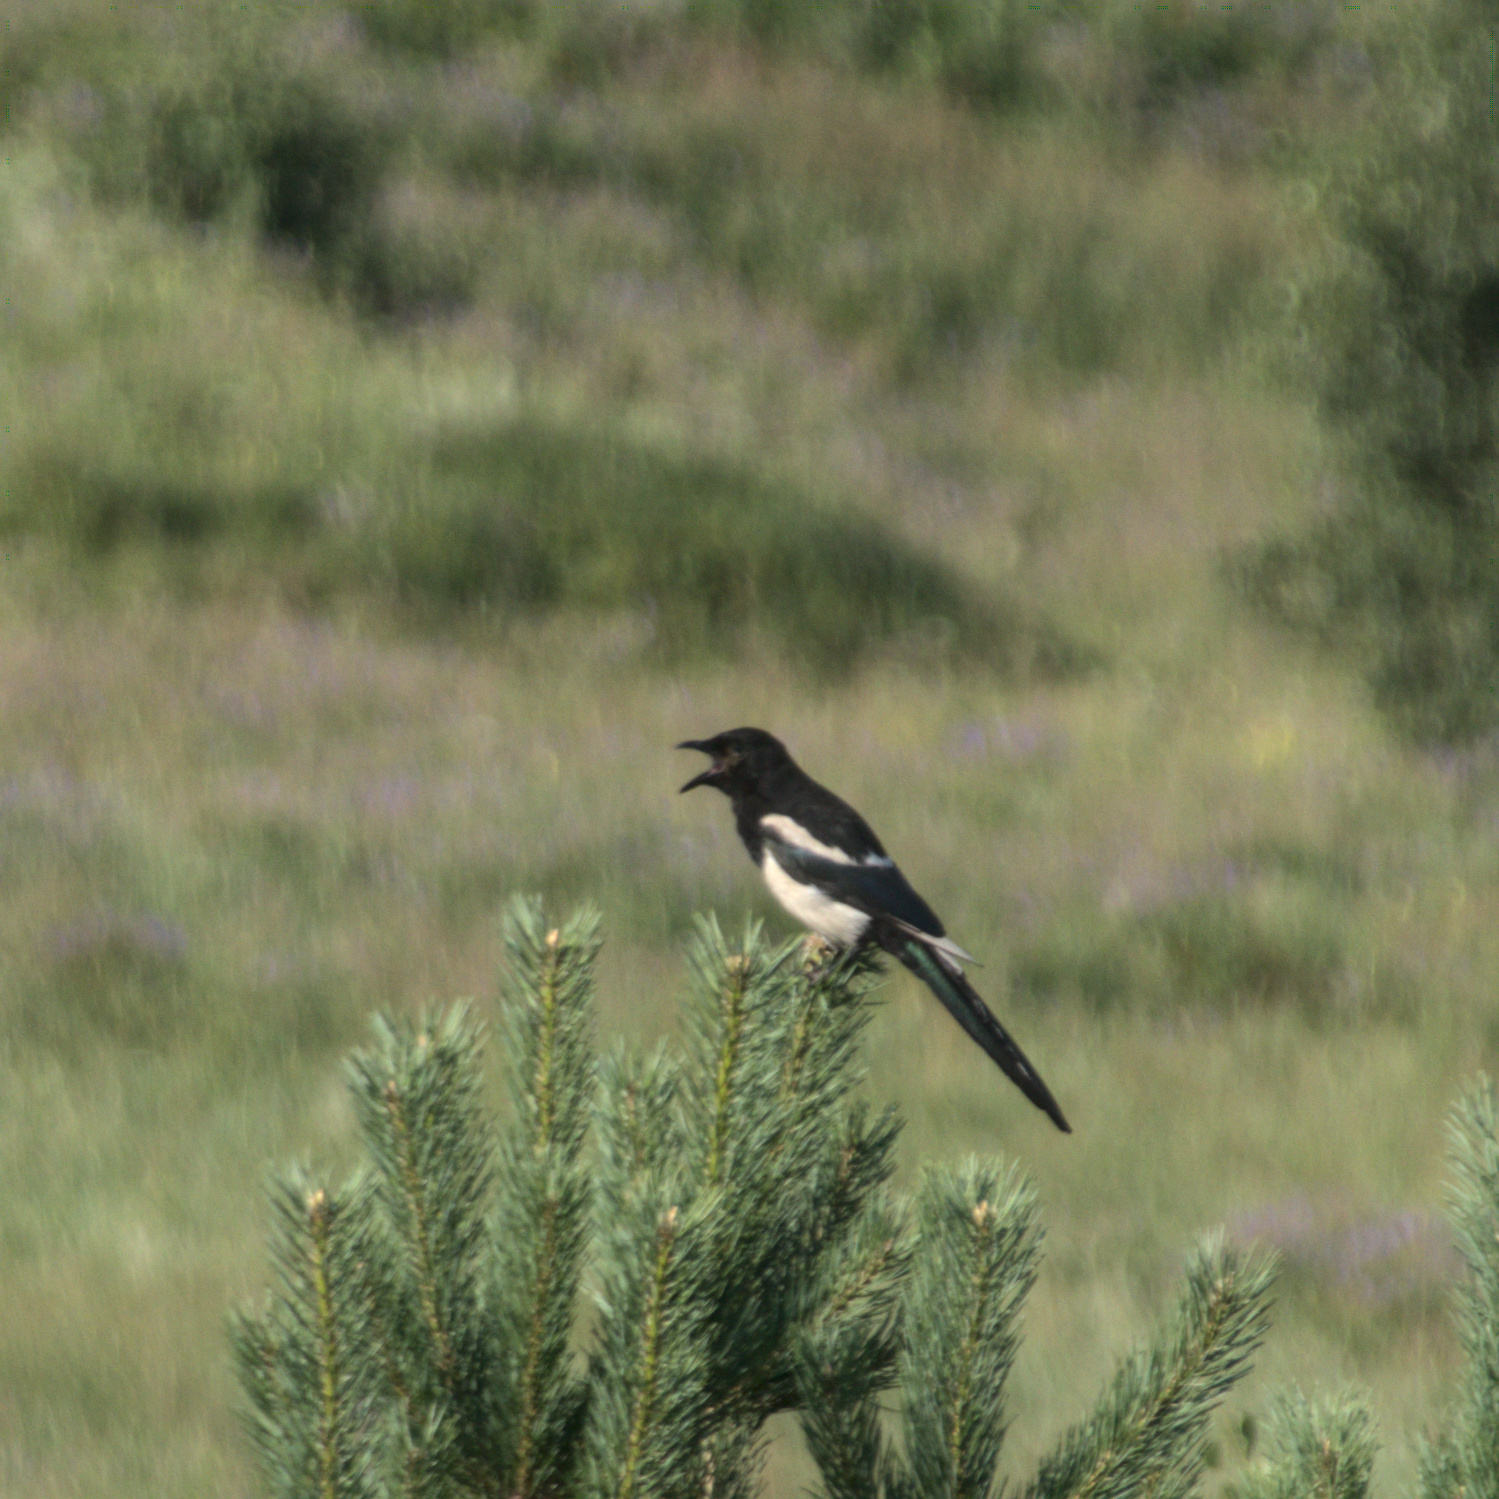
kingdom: Animalia
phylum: Chordata
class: Aves
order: Passeriformes
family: Corvidae
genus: Pica
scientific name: Pica pica
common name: Eurasian magpie
